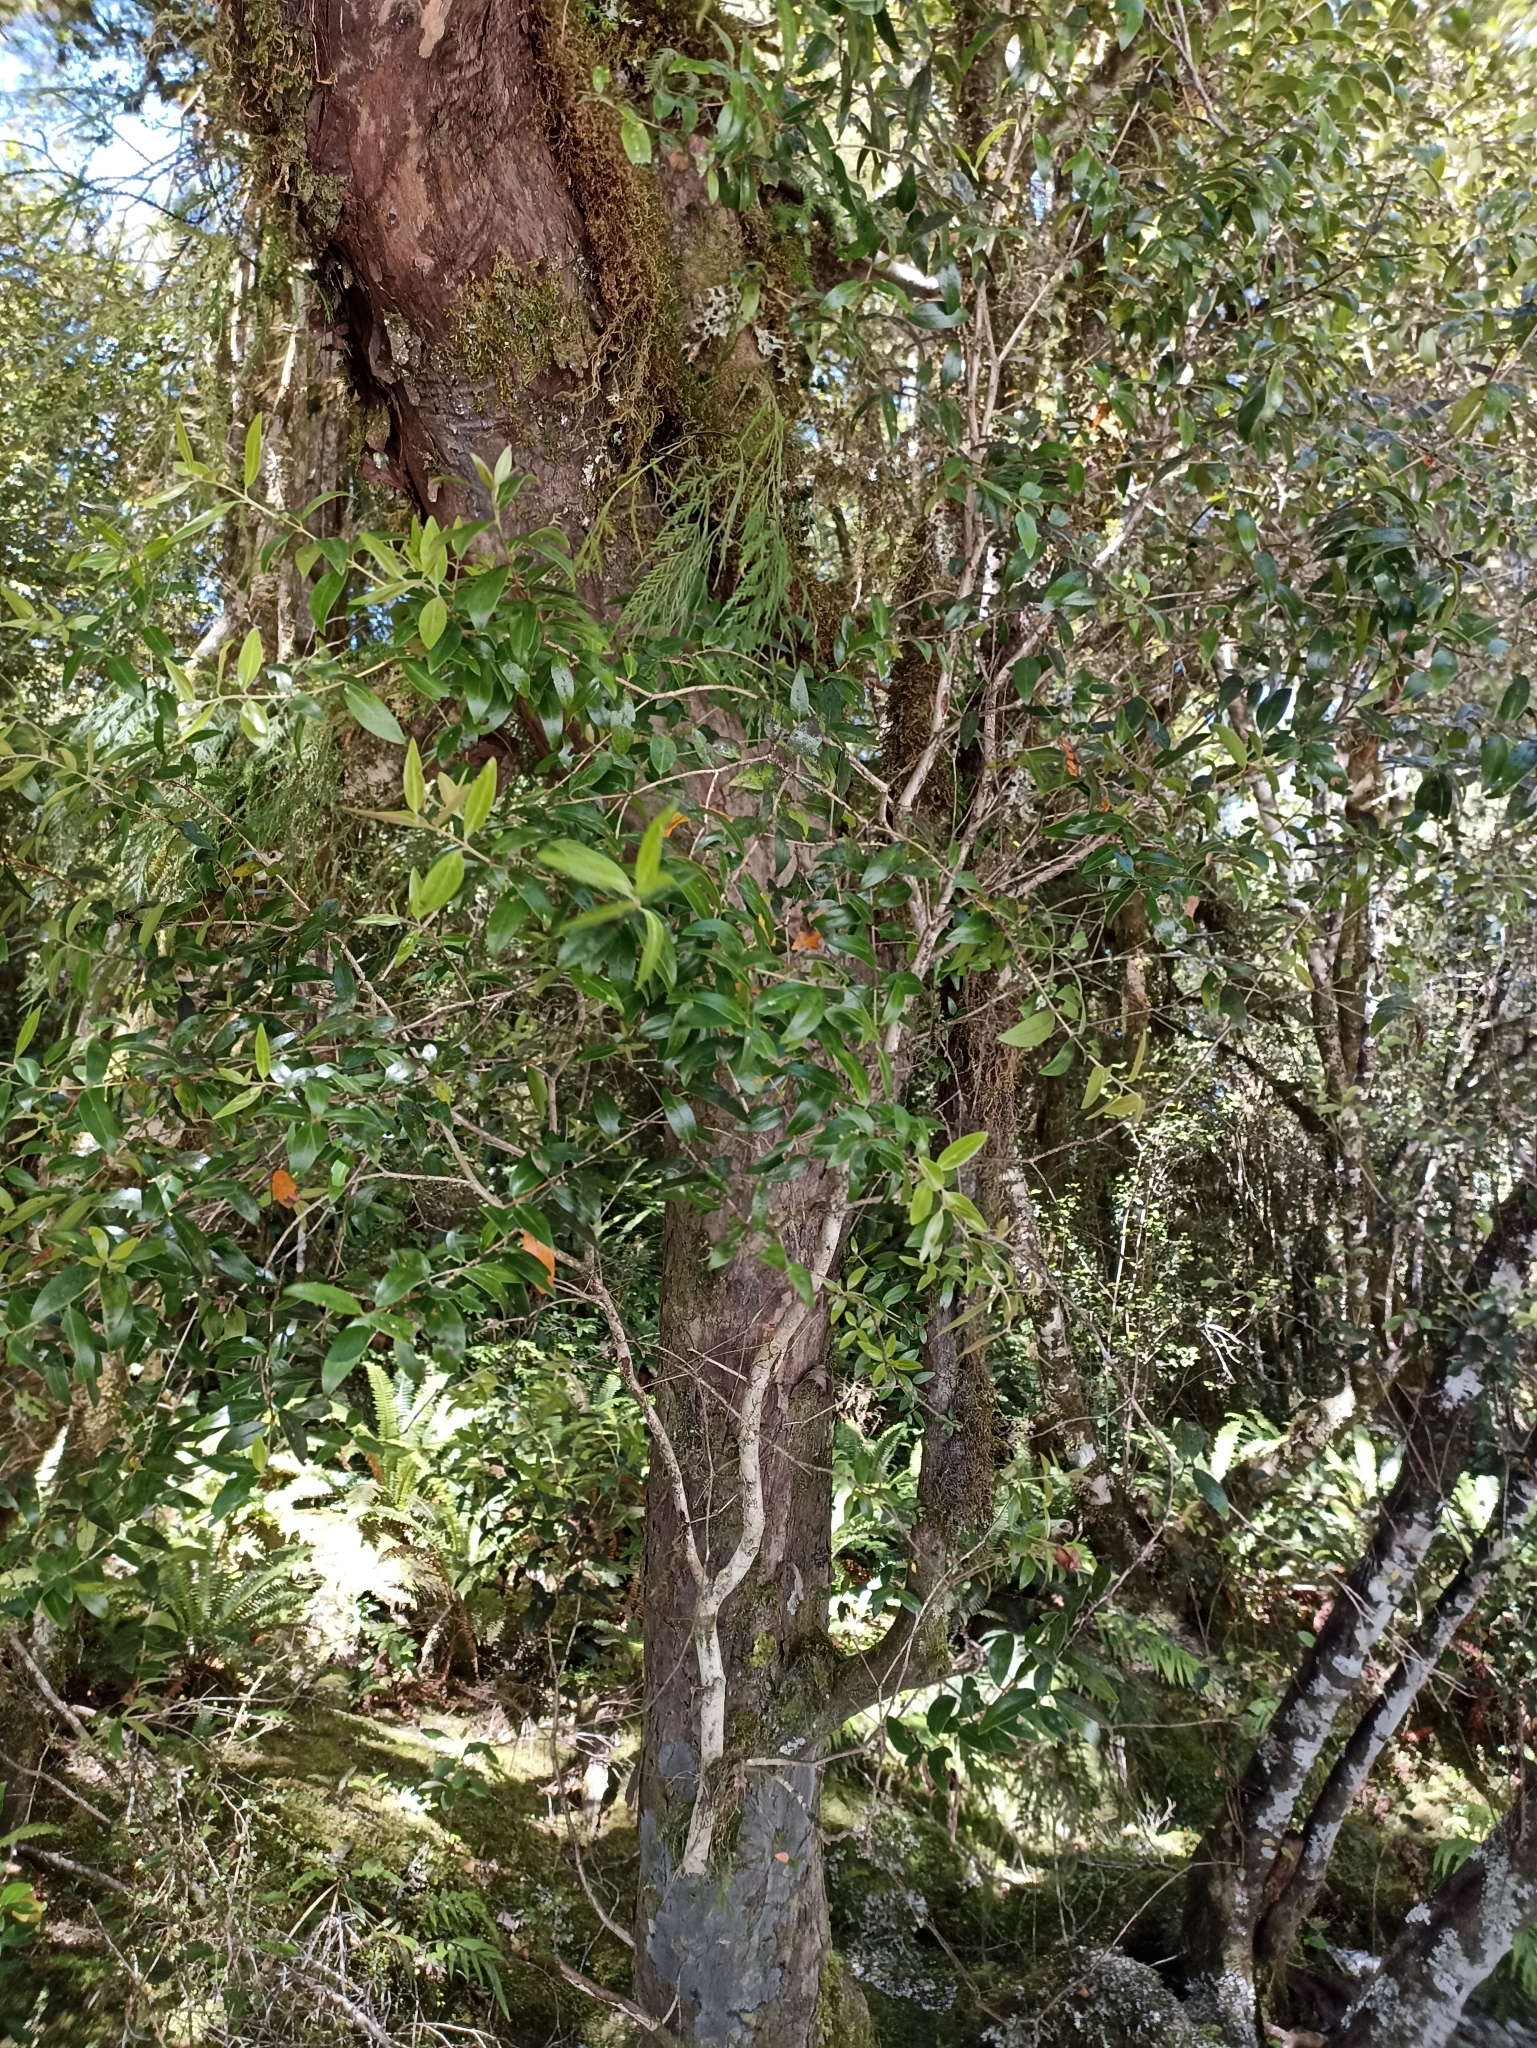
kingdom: Plantae
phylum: Tracheophyta
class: Magnoliopsida
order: Myrtales
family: Myrtaceae
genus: Metrosideros
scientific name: Metrosideros umbellata
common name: Southern rata
